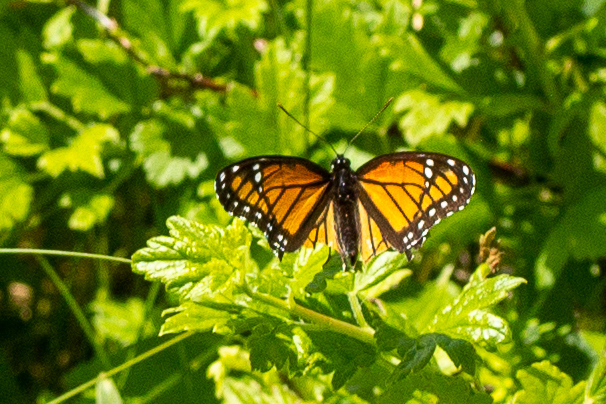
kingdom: Animalia
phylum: Arthropoda
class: Insecta
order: Lepidoptera
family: Nymphalidae
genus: Limenitis
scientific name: Limenitis archippus
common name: Viceroy
